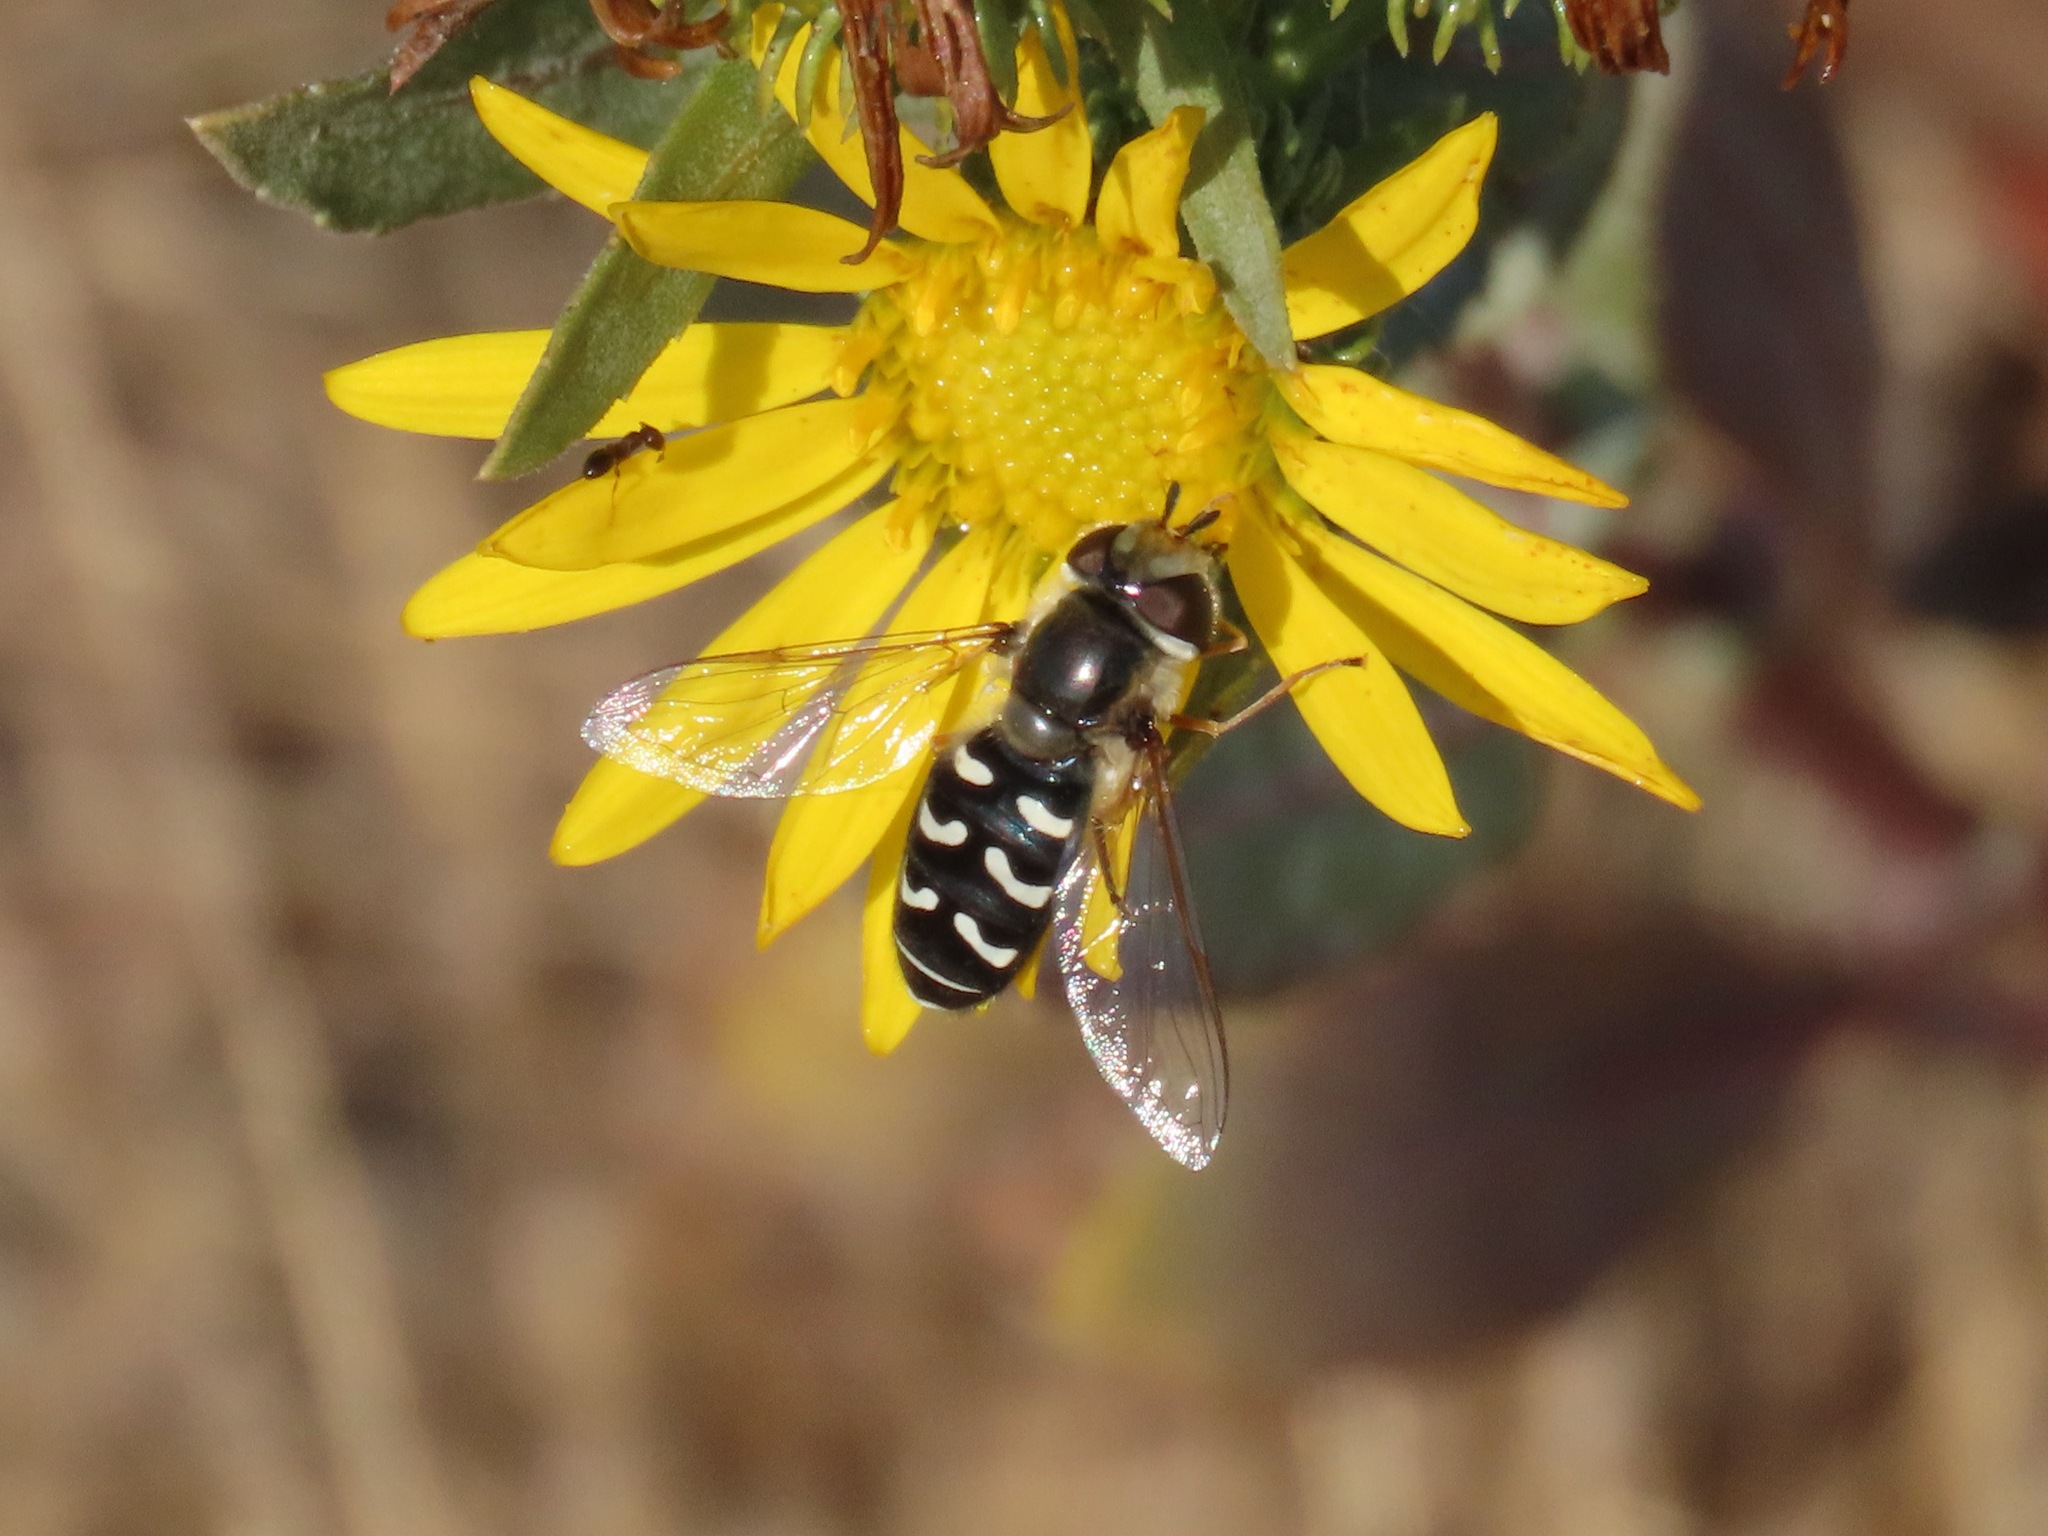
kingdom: Animalia
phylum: Arthropoda
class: Insecta
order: Diptera
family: Syrphidae
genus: Scaeva
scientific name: Scaeva affinis
